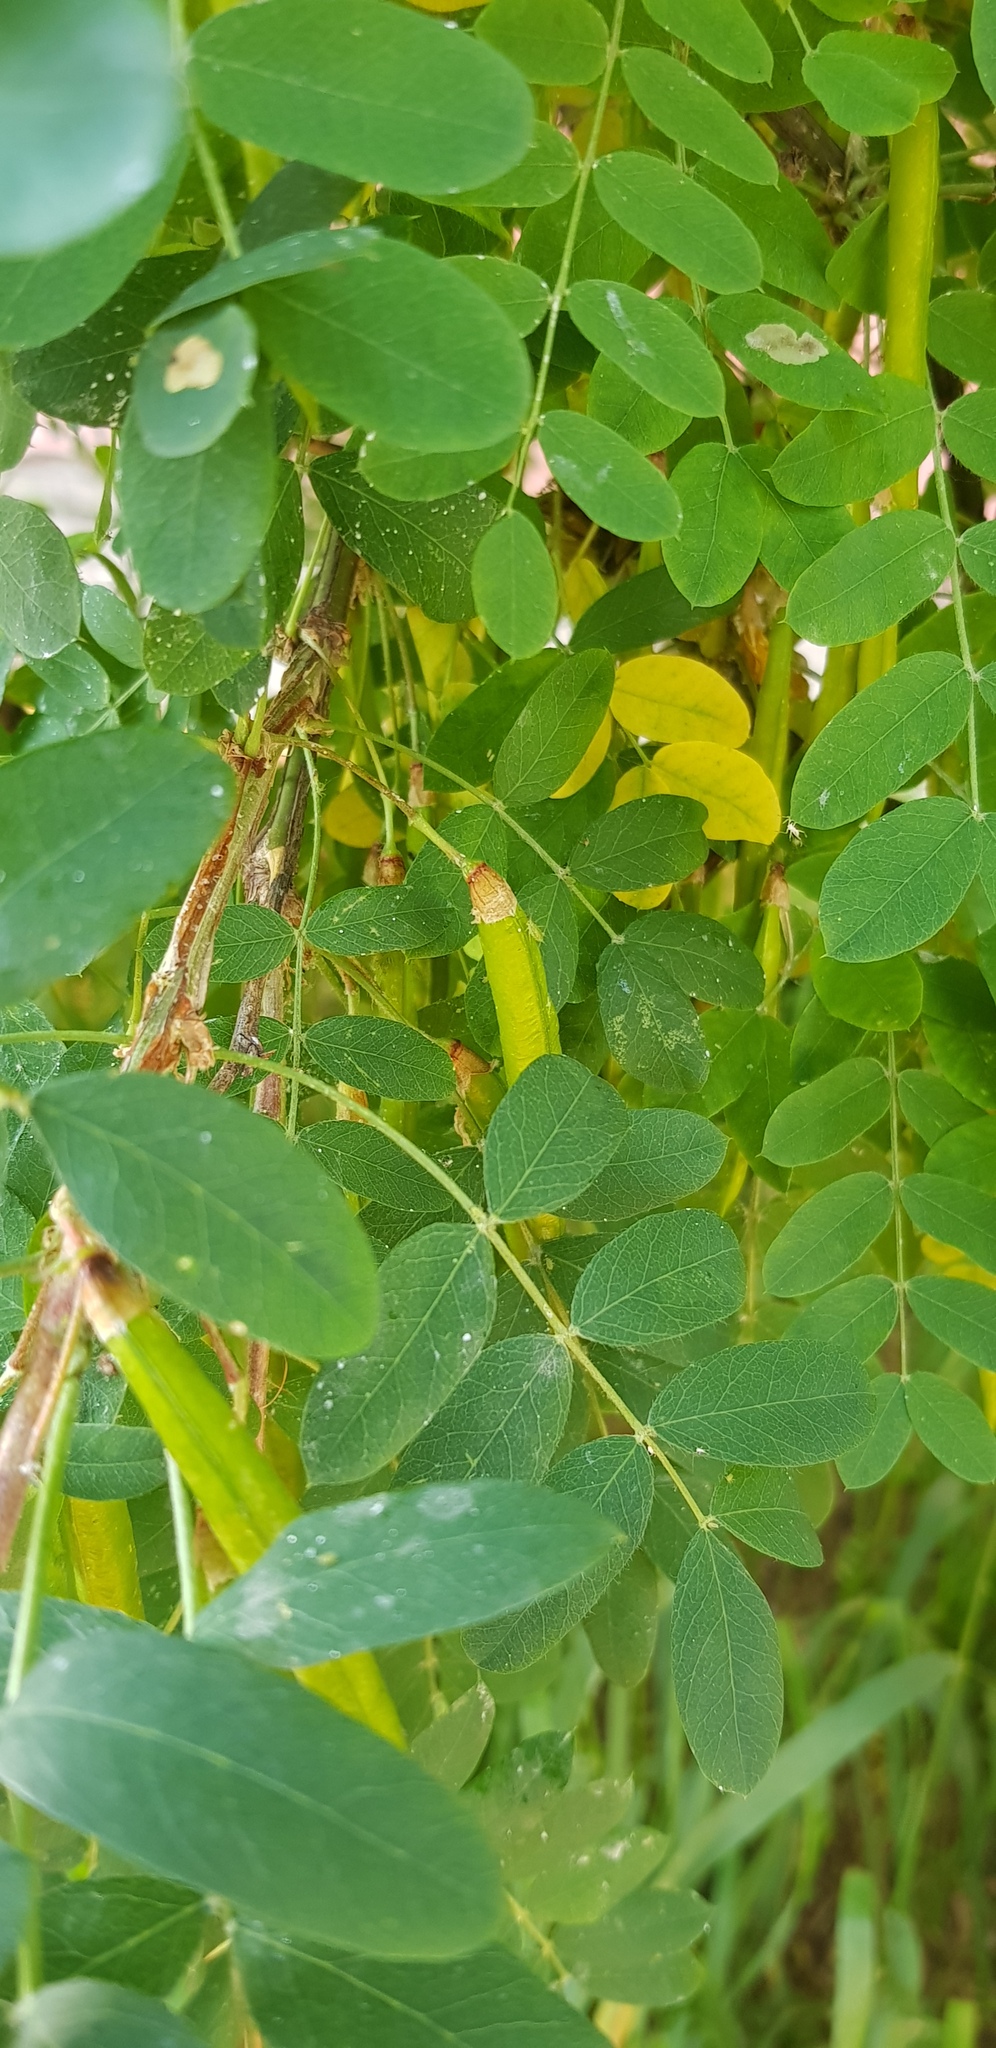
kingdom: Plantae
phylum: Tracheophyta
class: Magnoliopsida
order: Fabales
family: Fabaceae
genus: Caragana
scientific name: Caragana arborescens
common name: Siberian peashrub
